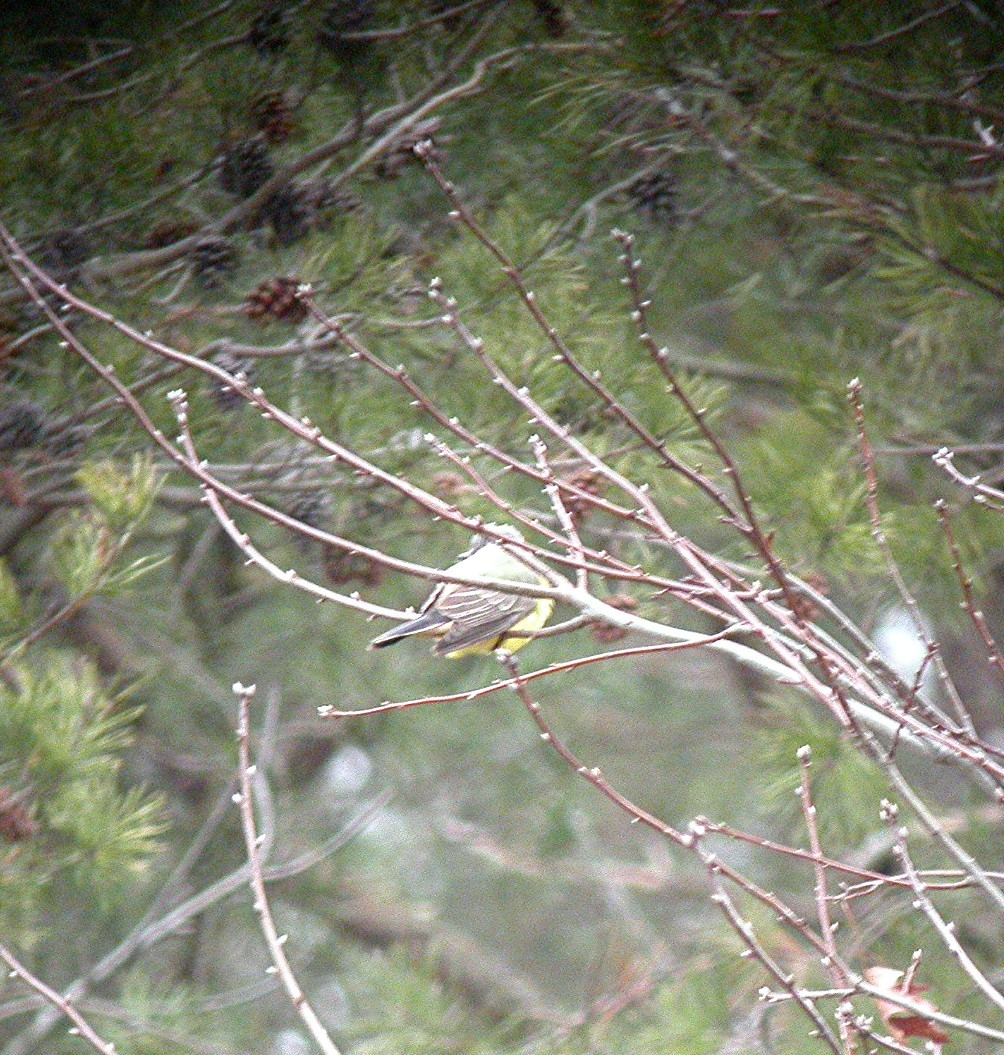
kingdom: Animalia
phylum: Chordata
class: Aves
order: Passeriformes
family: Tyrannidae
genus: Tyrannus
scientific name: Tyrannus verticalis
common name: Western kingbird
